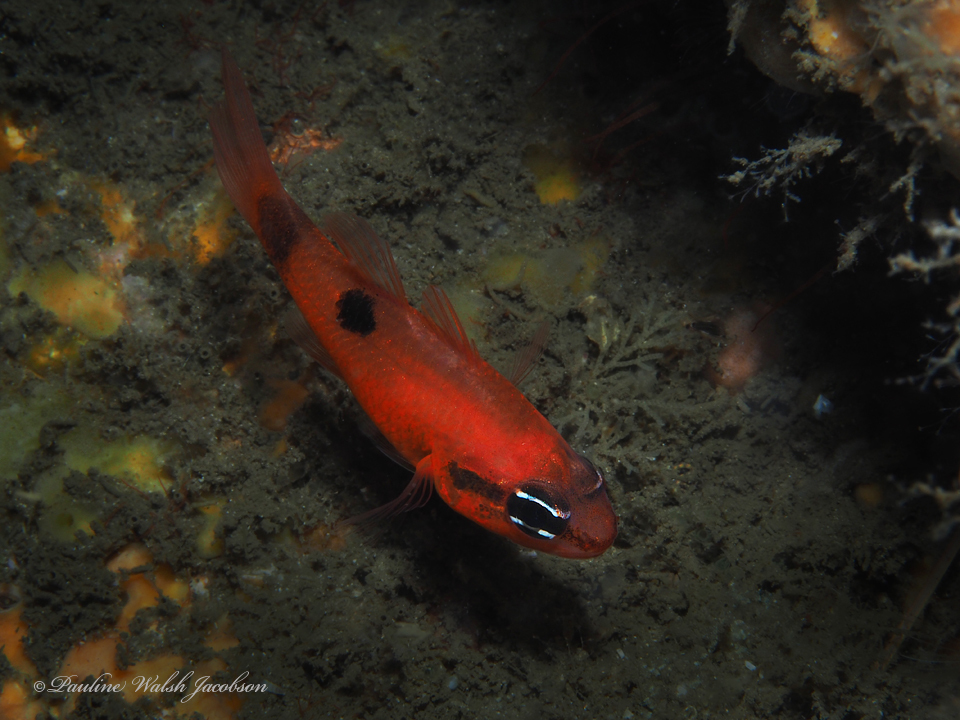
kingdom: Animalia
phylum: Chordata
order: Perciformes
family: Apogonidae
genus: Apogon
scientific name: Apogon maculatus
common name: Flamefish
